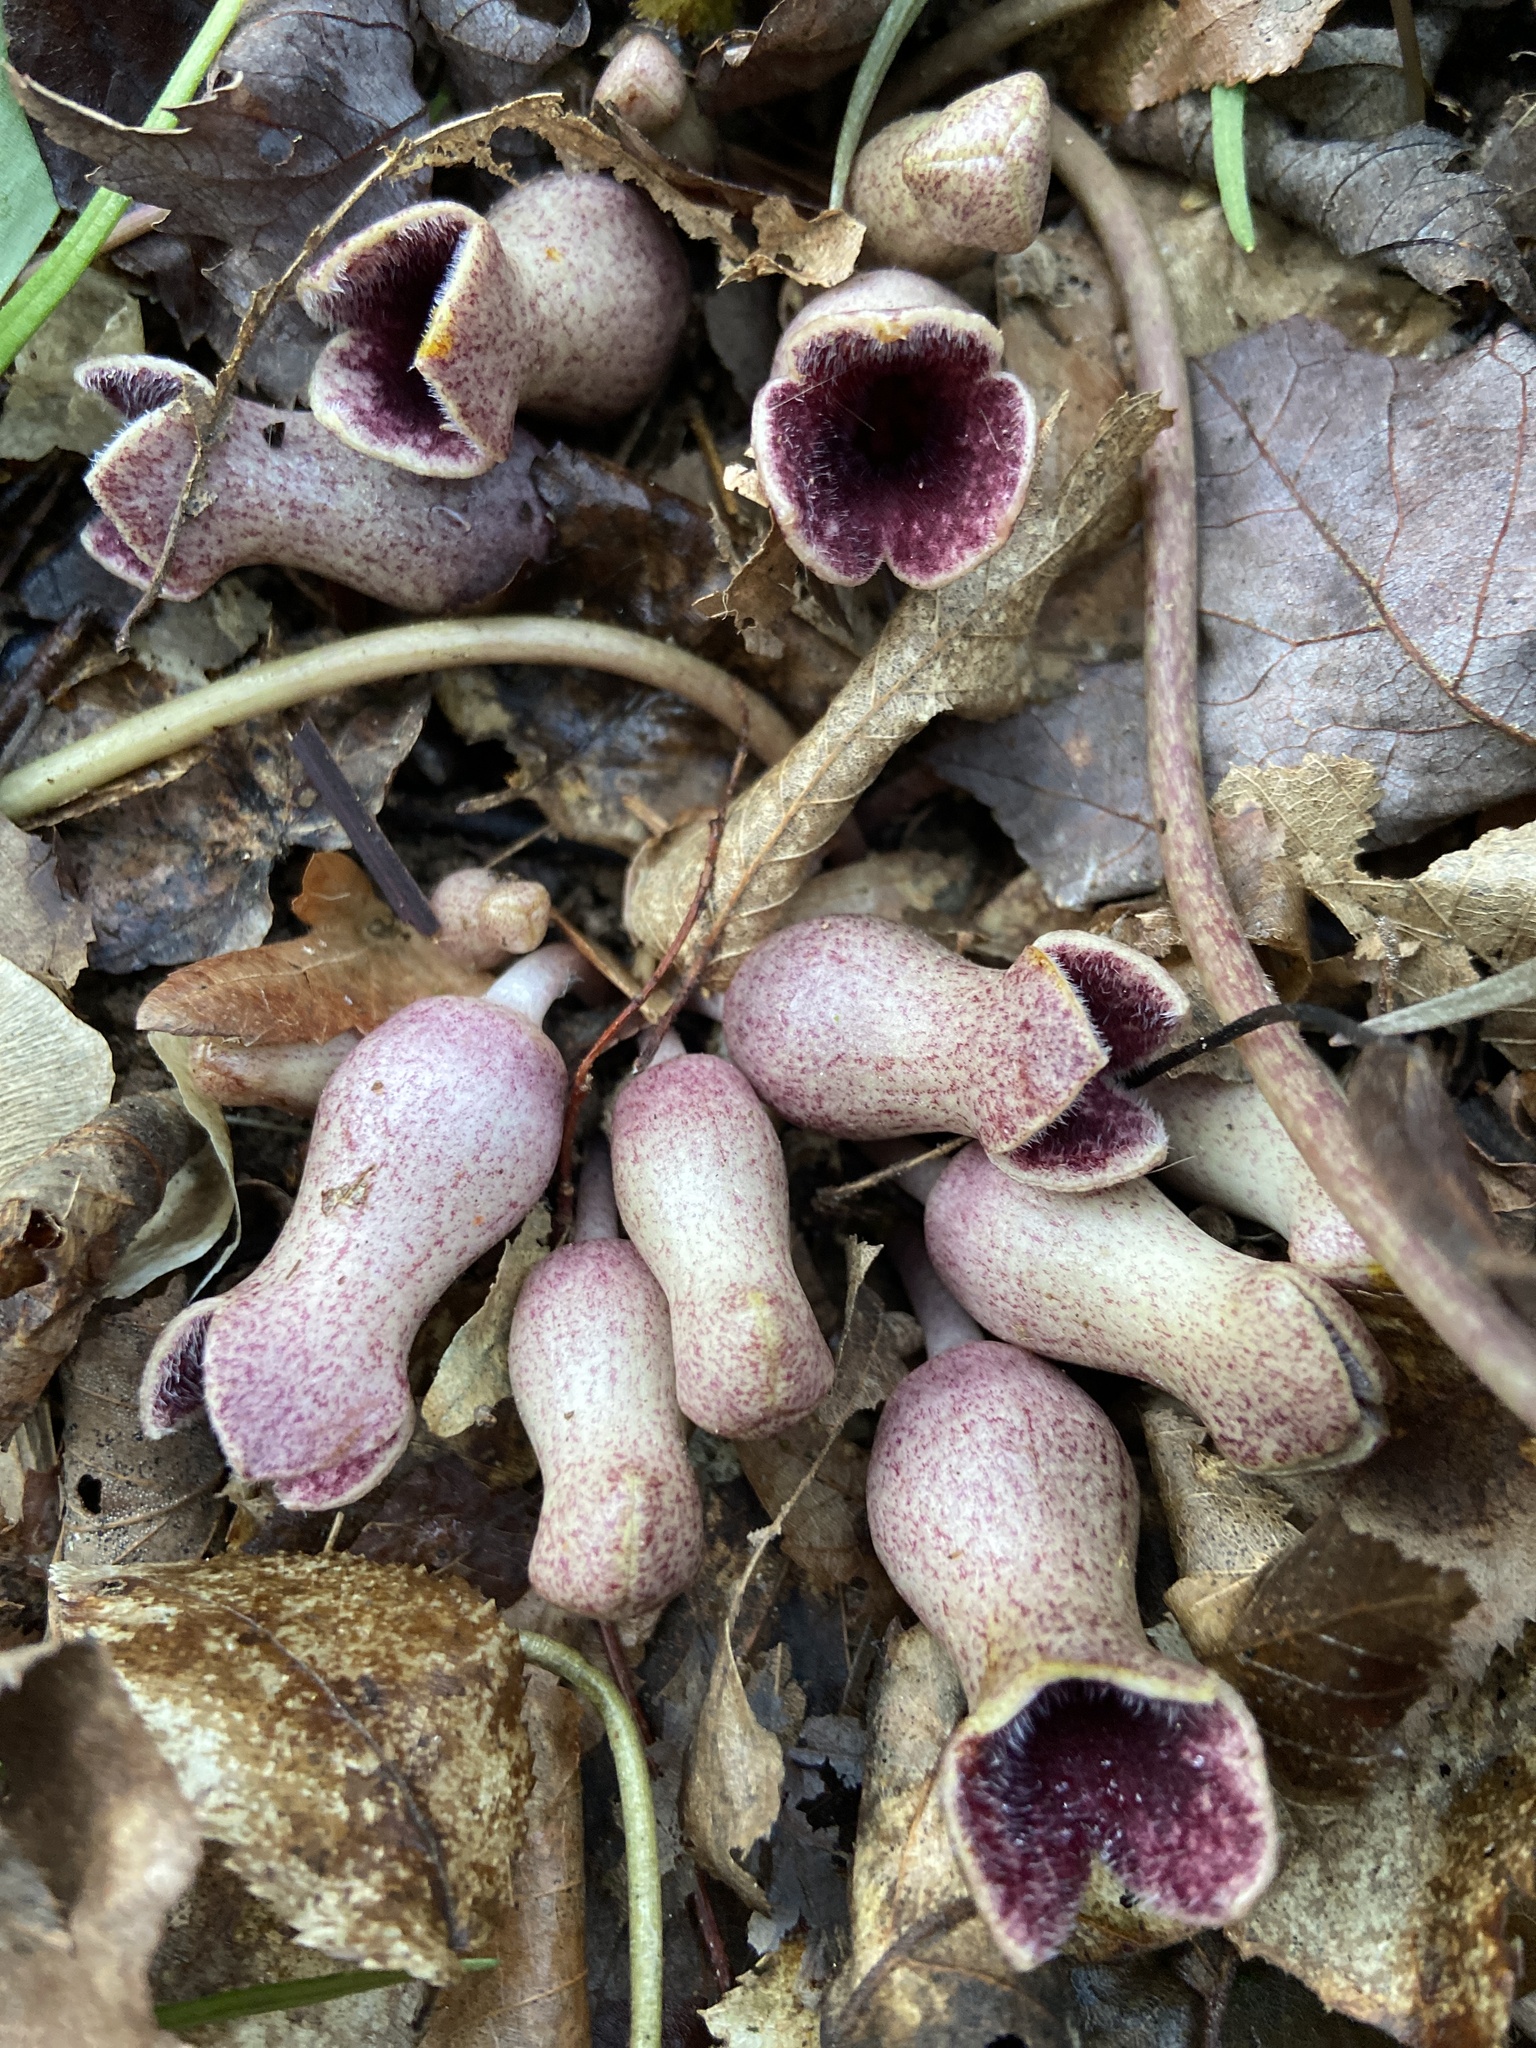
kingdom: Plantae
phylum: Tracheophyta
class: Magnoliopsida
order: Piperales
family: Aristolochiaceae
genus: Hexastylis
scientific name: Hexastylis arifolia
